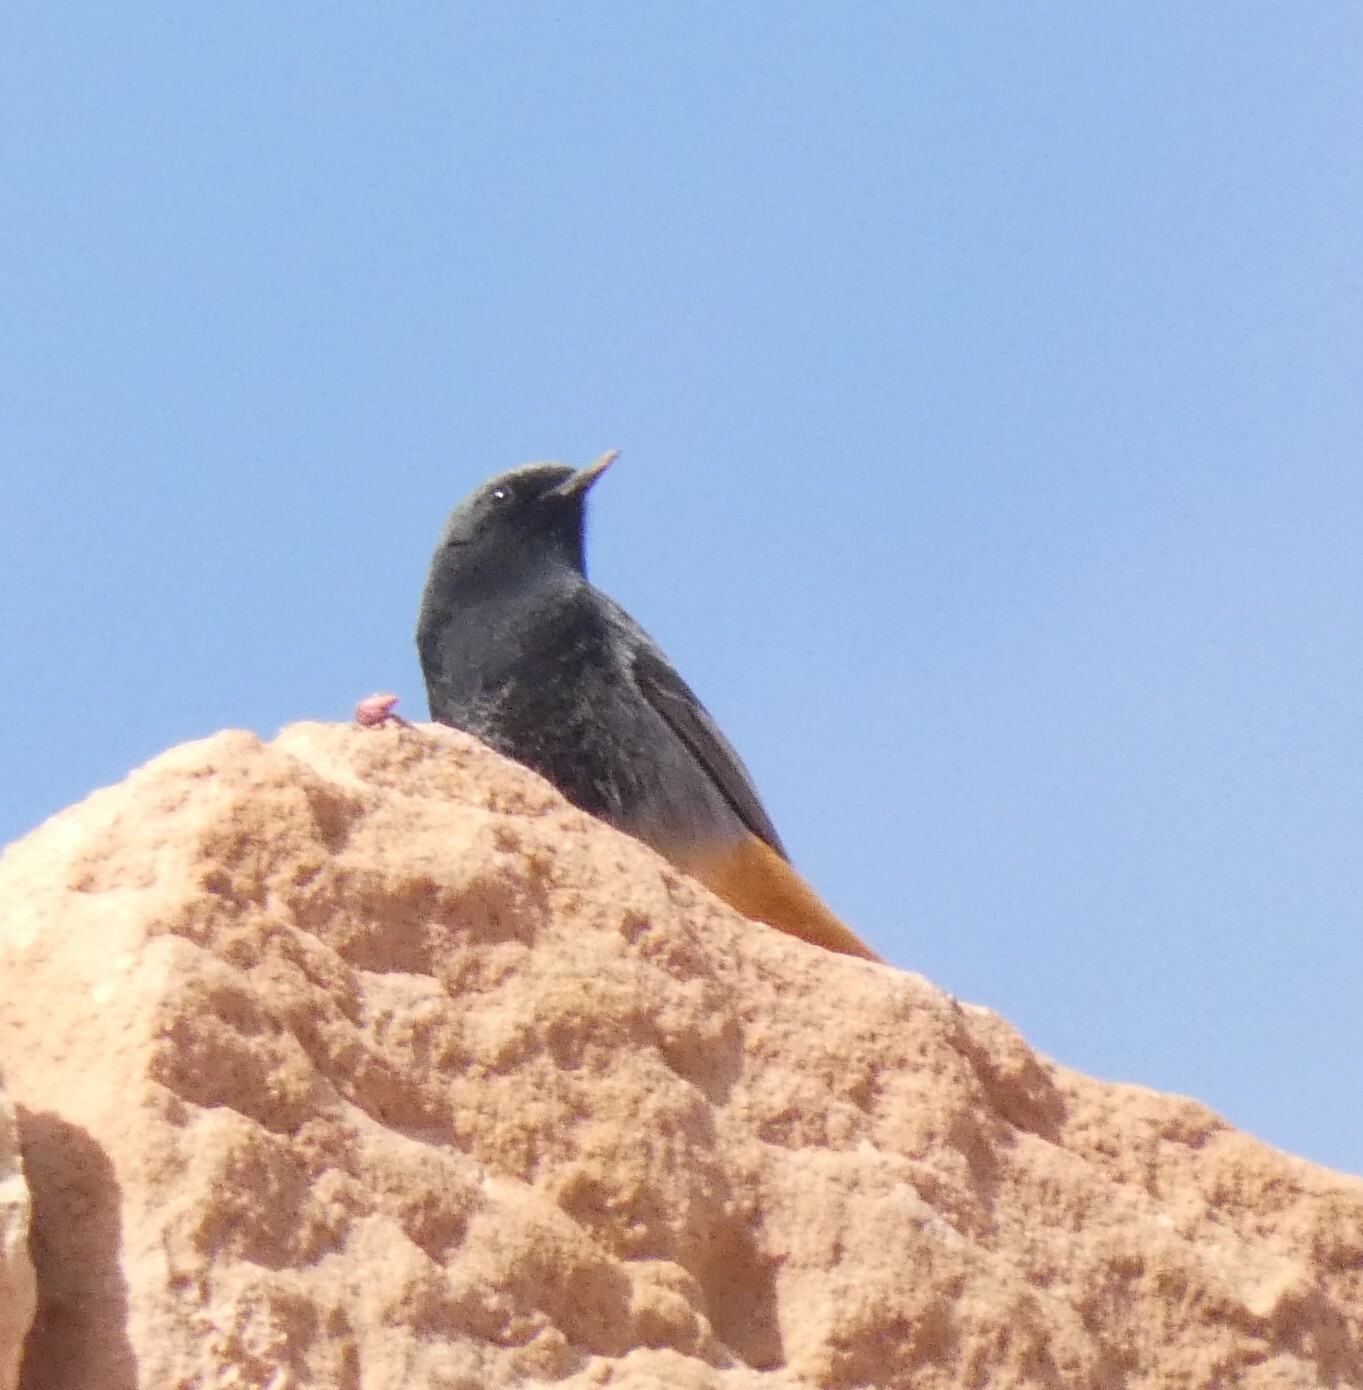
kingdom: Animalia
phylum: Chordata
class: Aves
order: Passeriformes
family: Muscicapidae
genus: Phoenicurus
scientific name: Phoenicurus ochruros
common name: Black redstart
